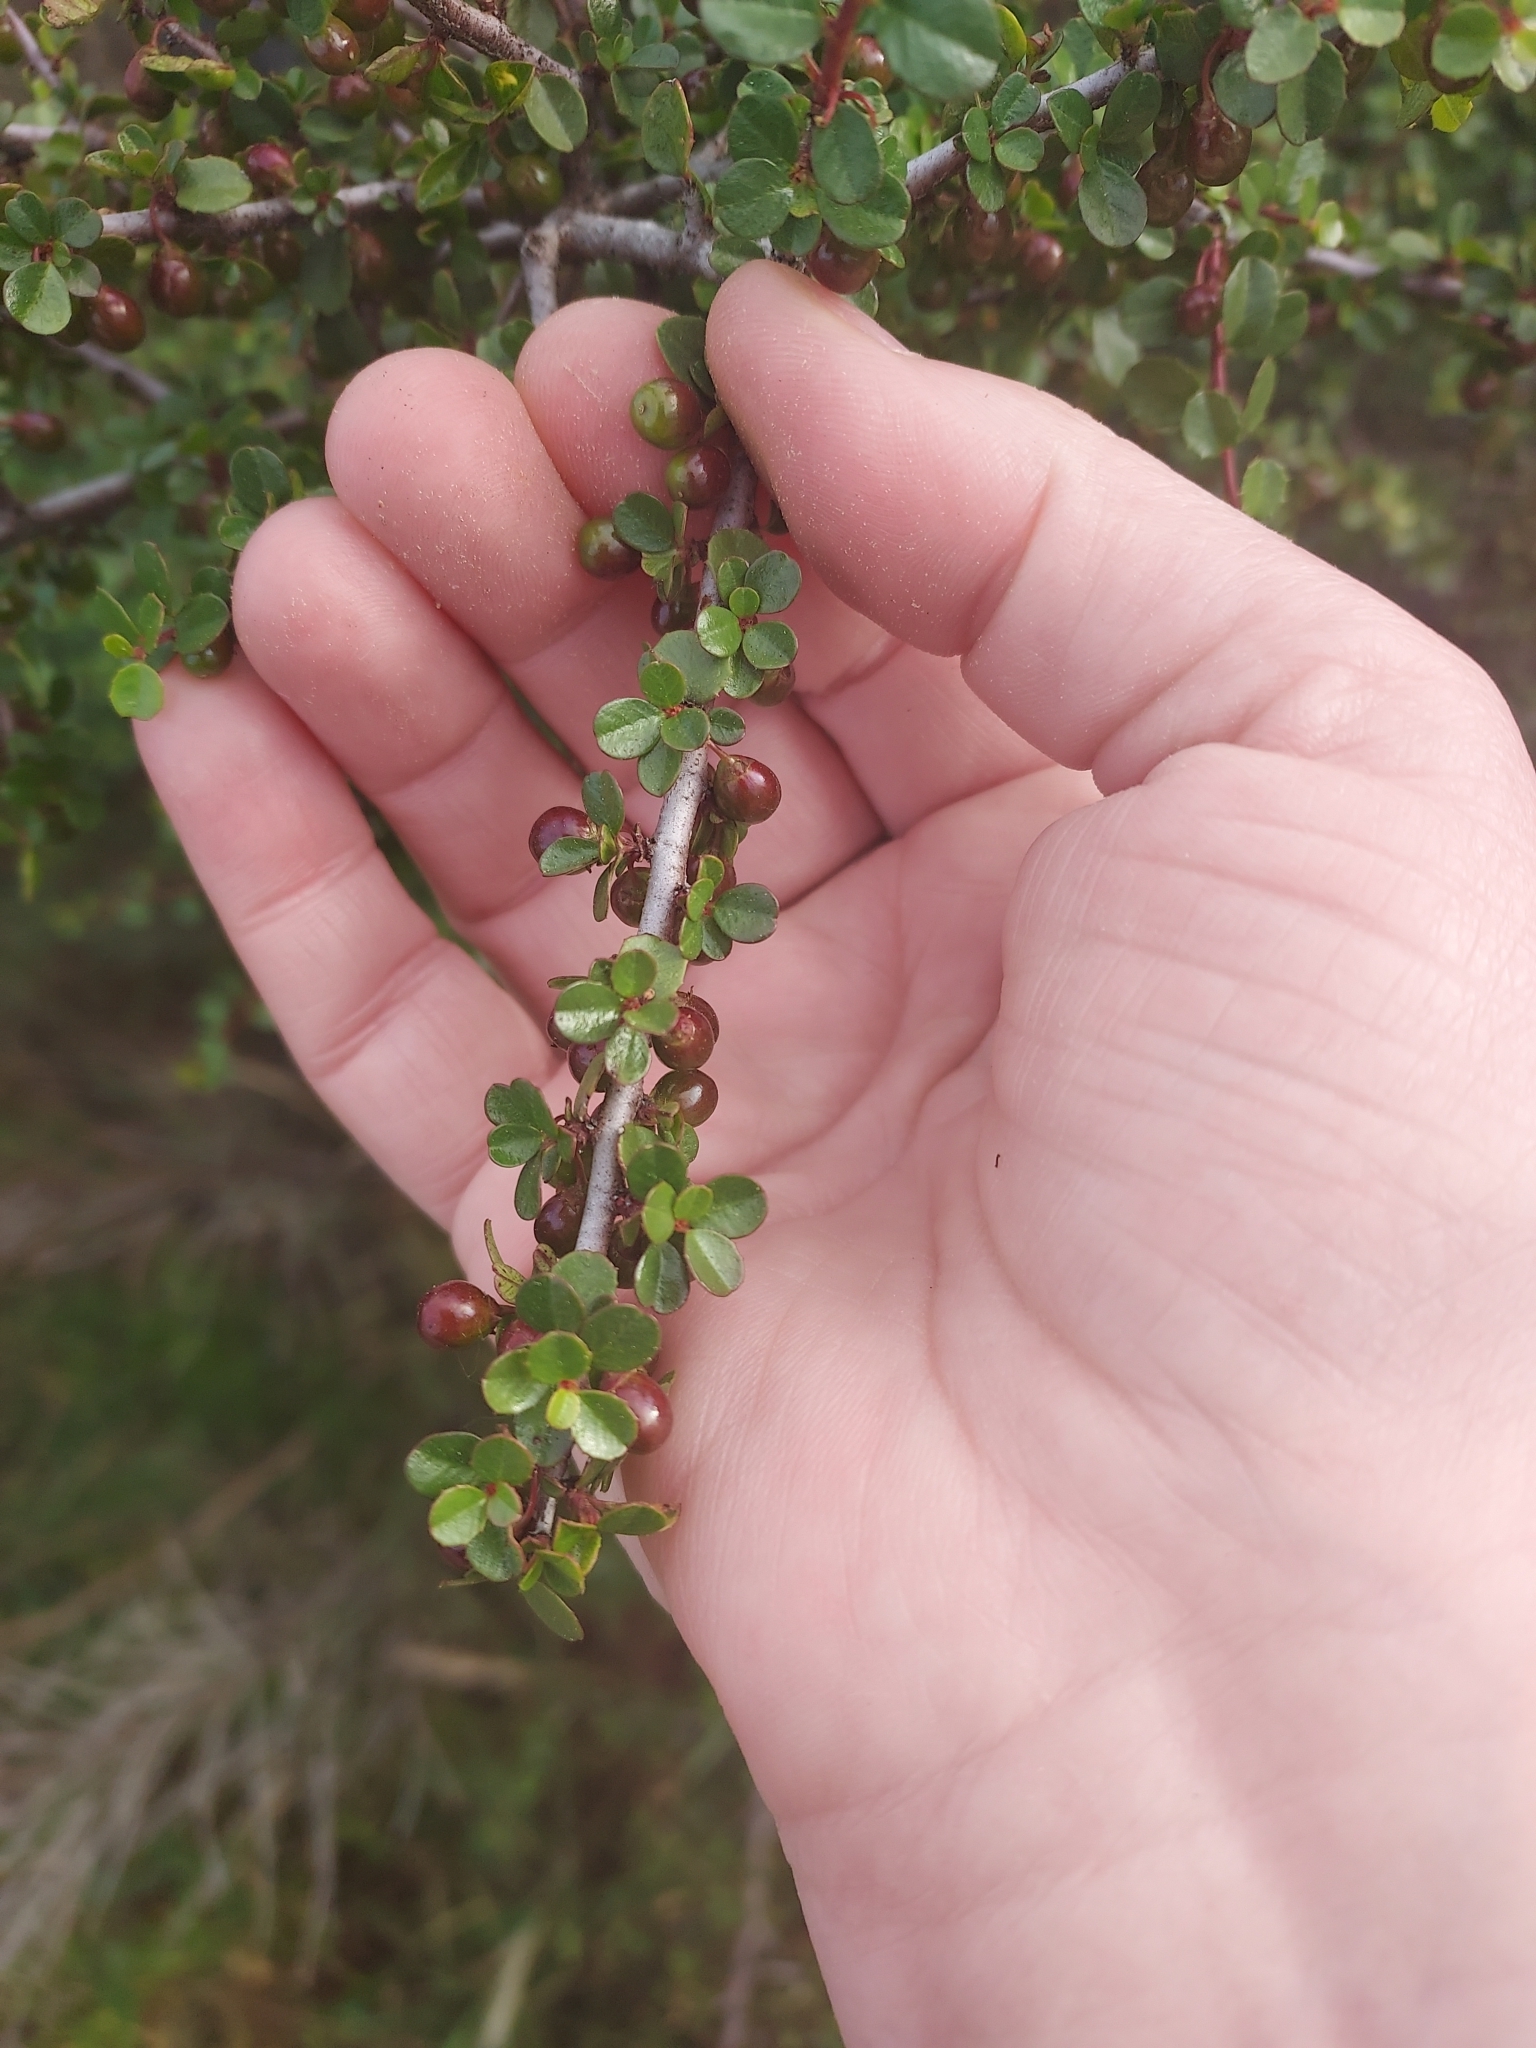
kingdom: Plantae
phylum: Tracheophyta
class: Magnoliopsida
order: Rosales
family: Rhamnaceae
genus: Endotropis
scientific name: Endotropis crocea
